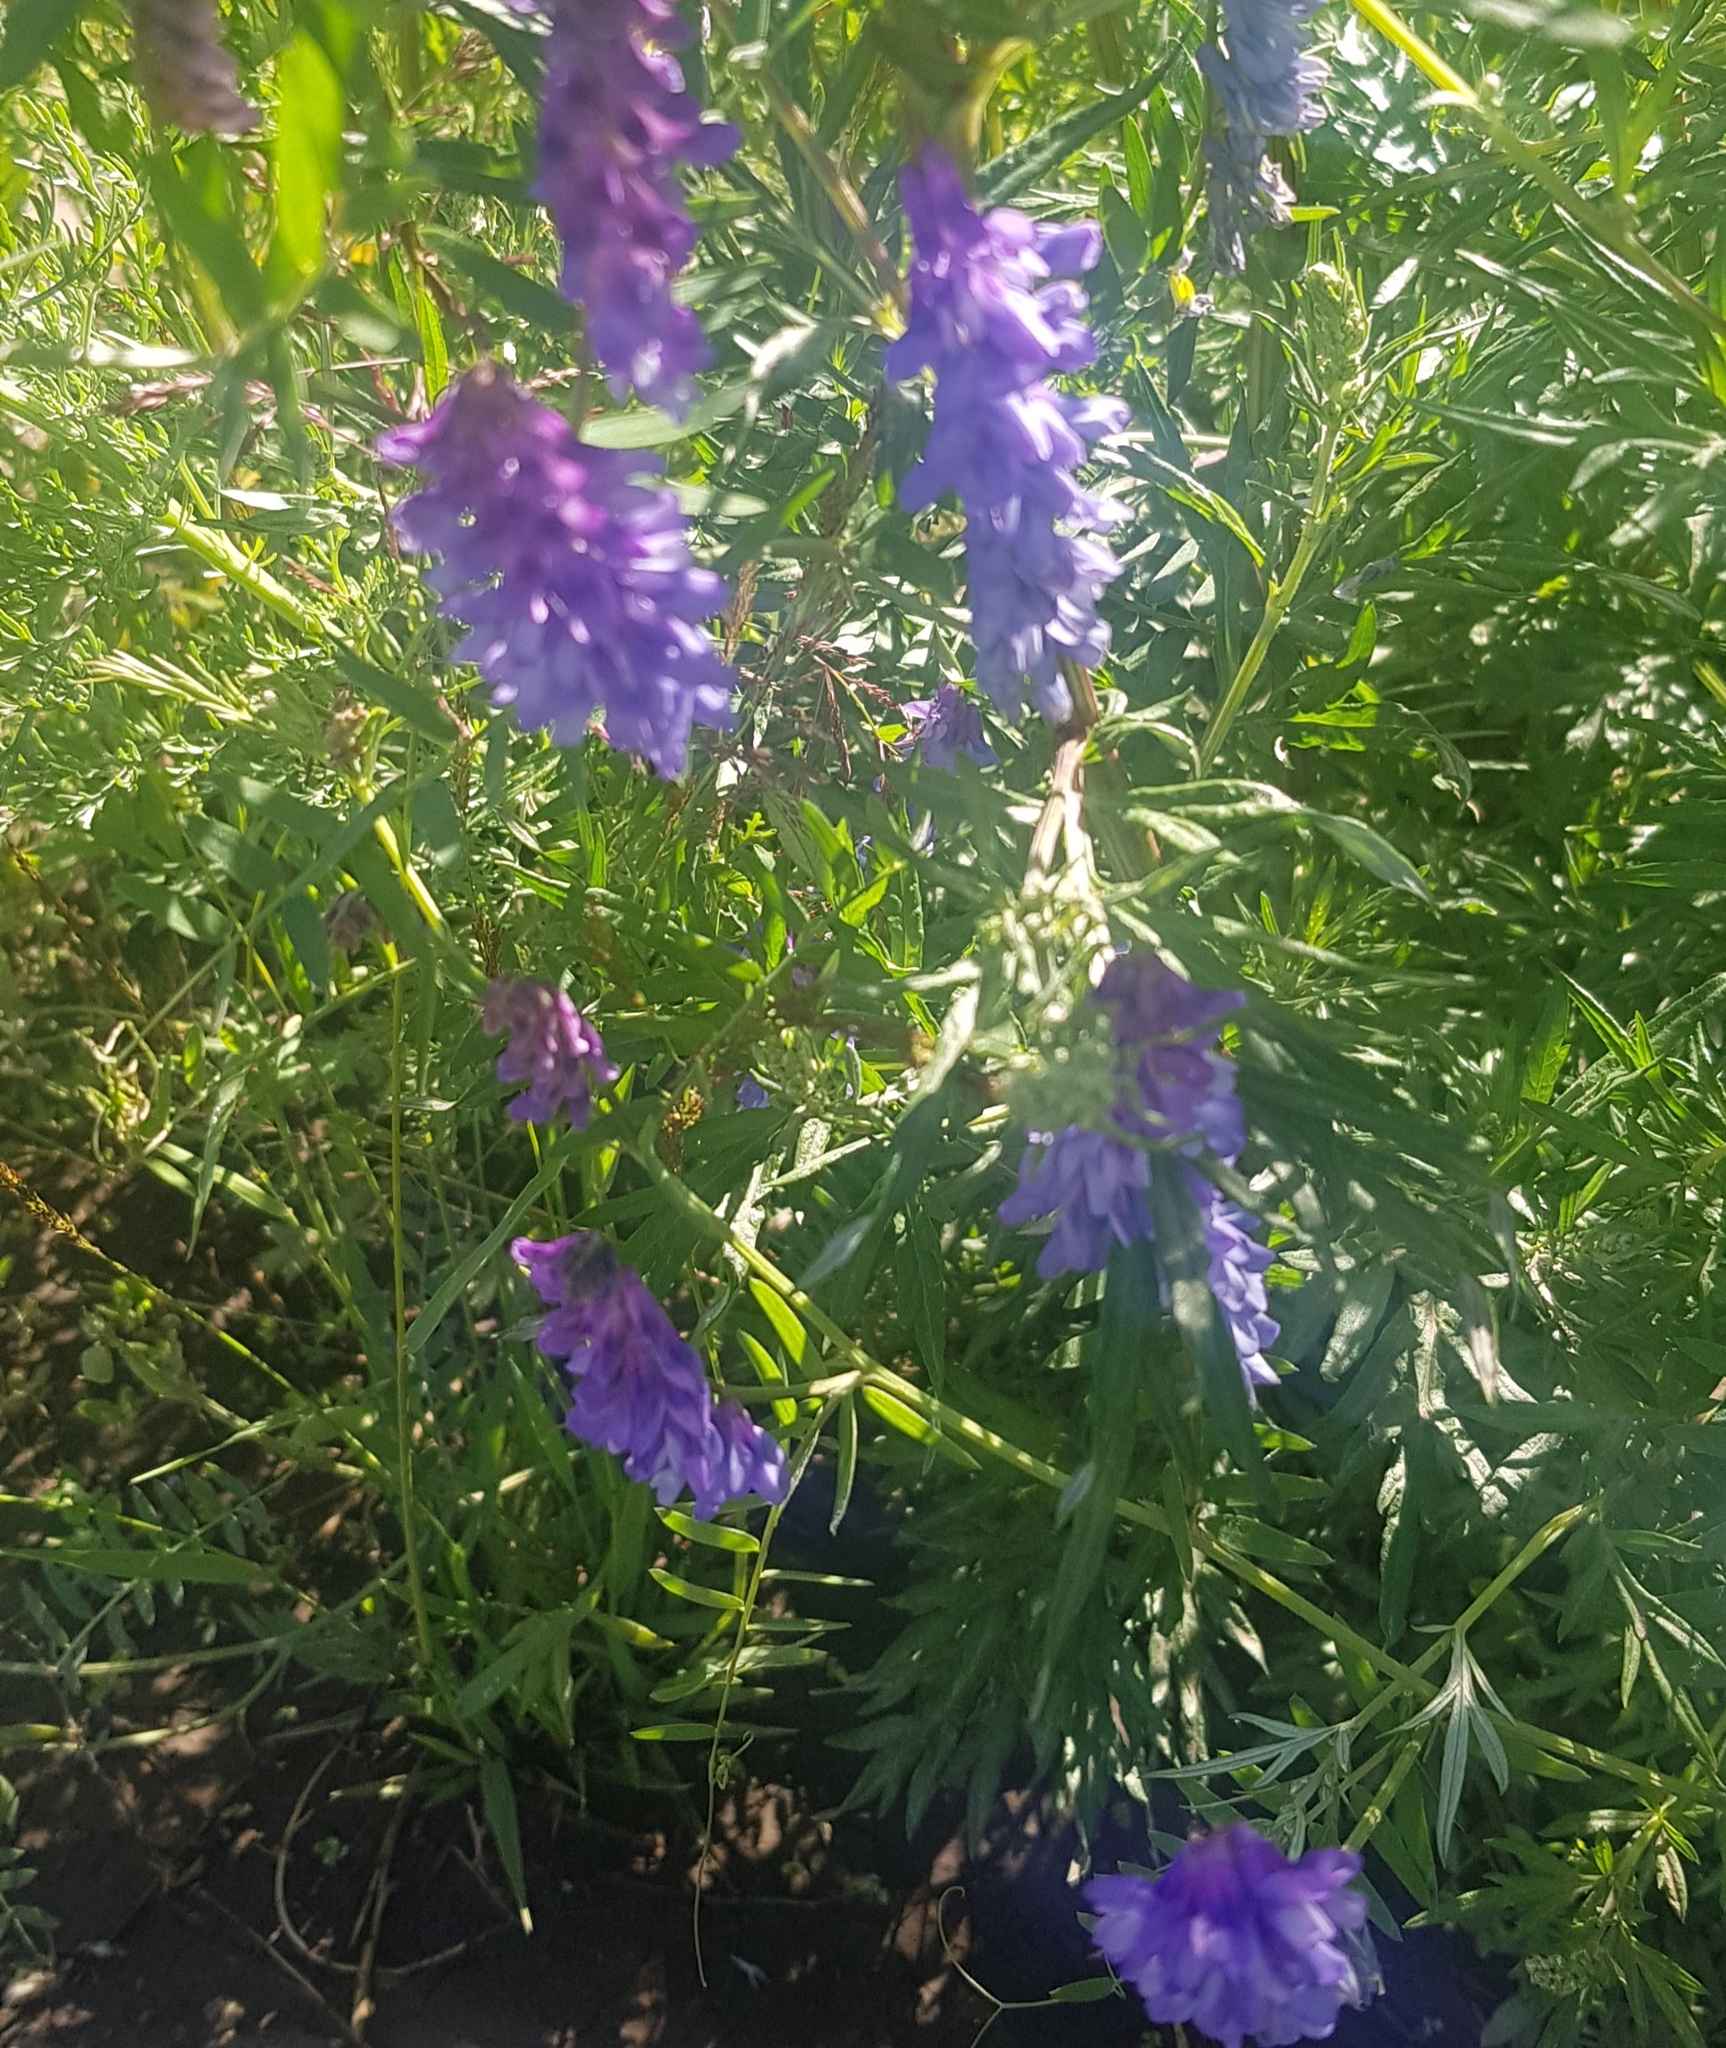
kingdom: Plantae
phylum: Tracheophyta
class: Magnoliopsida
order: Fabales
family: Fabaceae
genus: Vicia
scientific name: Vicia cracca
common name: Bird vetch
